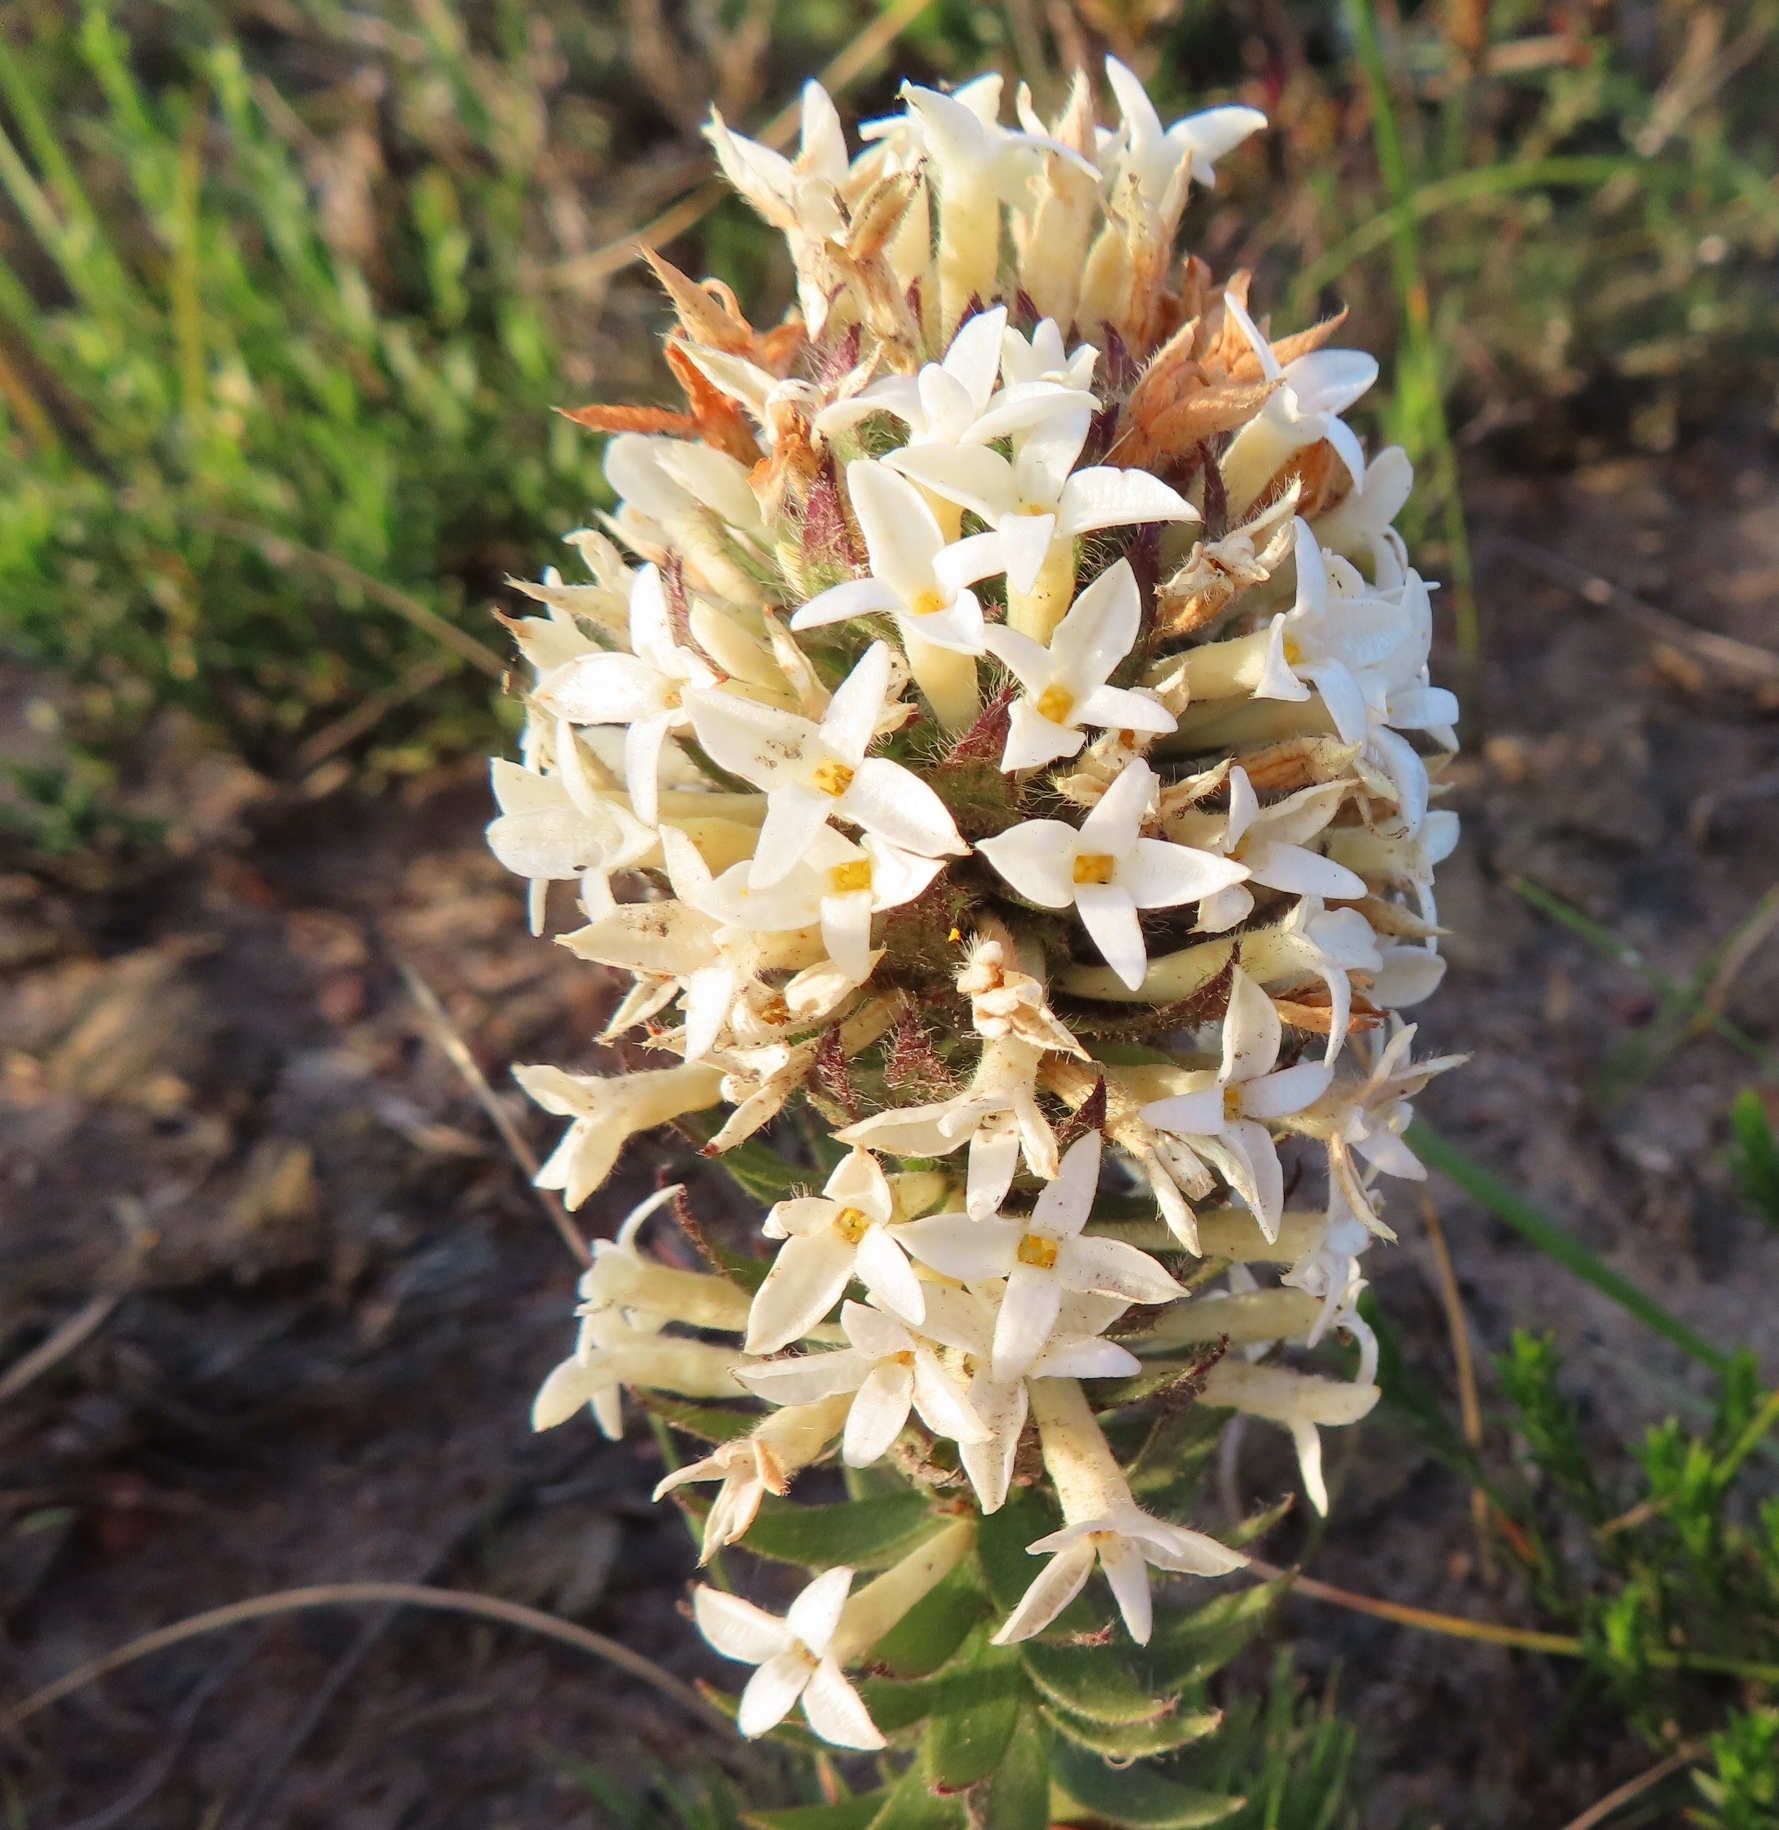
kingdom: Plantae
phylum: Tracheophyta
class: Magnoliopsida
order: Malvales
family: Thymelaeaceae
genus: Gnidia
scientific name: Gnidia ornata
